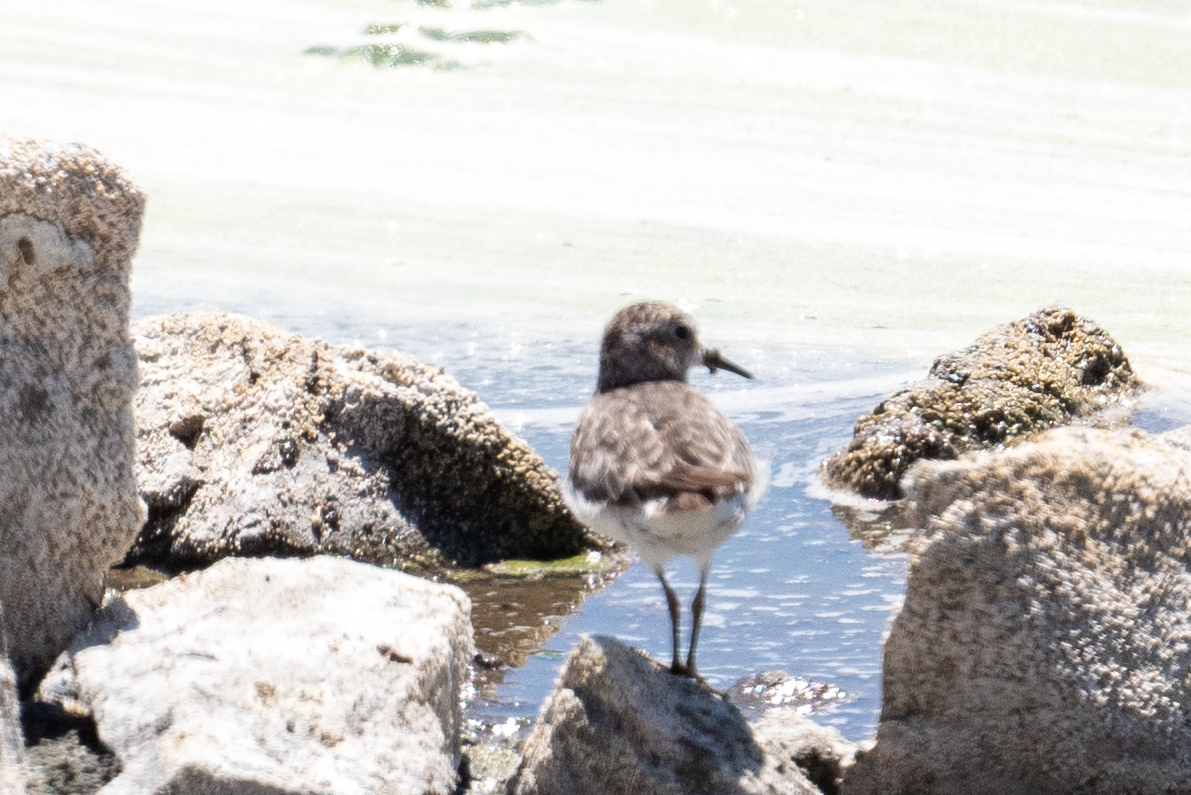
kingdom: Animalia
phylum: Chordata
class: Aves
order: Charadriiformes
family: Scolopacidae
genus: Calidris
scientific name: Calidris minutilla
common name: Least sandpiper
